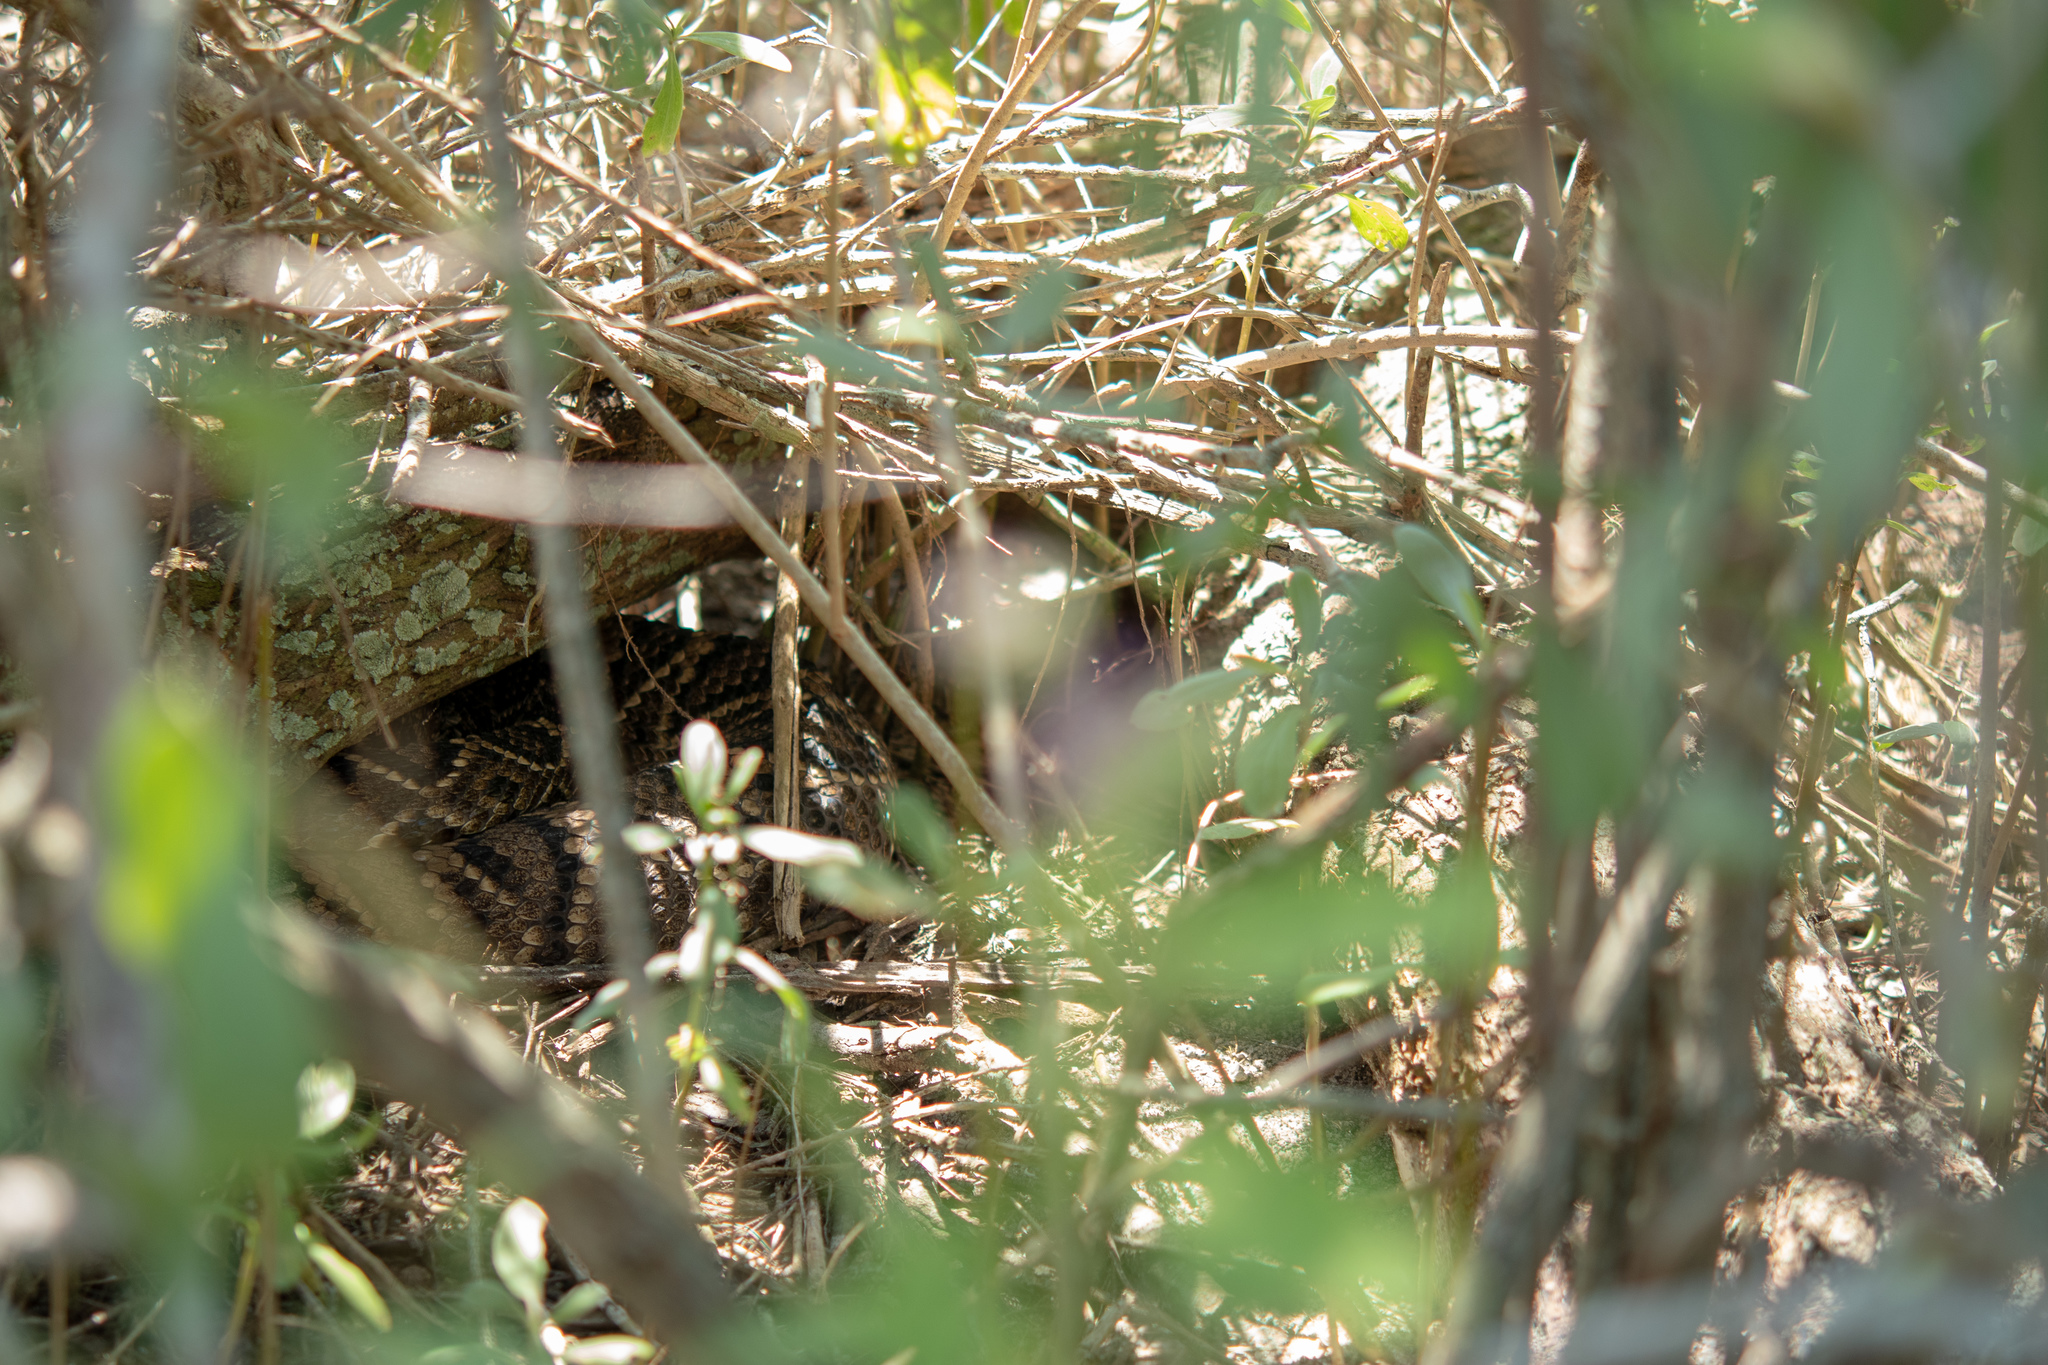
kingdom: Animalia
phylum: Chordata
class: Squamata
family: Viperidae
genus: Crotalus
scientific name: Crotalus adamanteus
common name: Eastern diamondback rattlesnake
